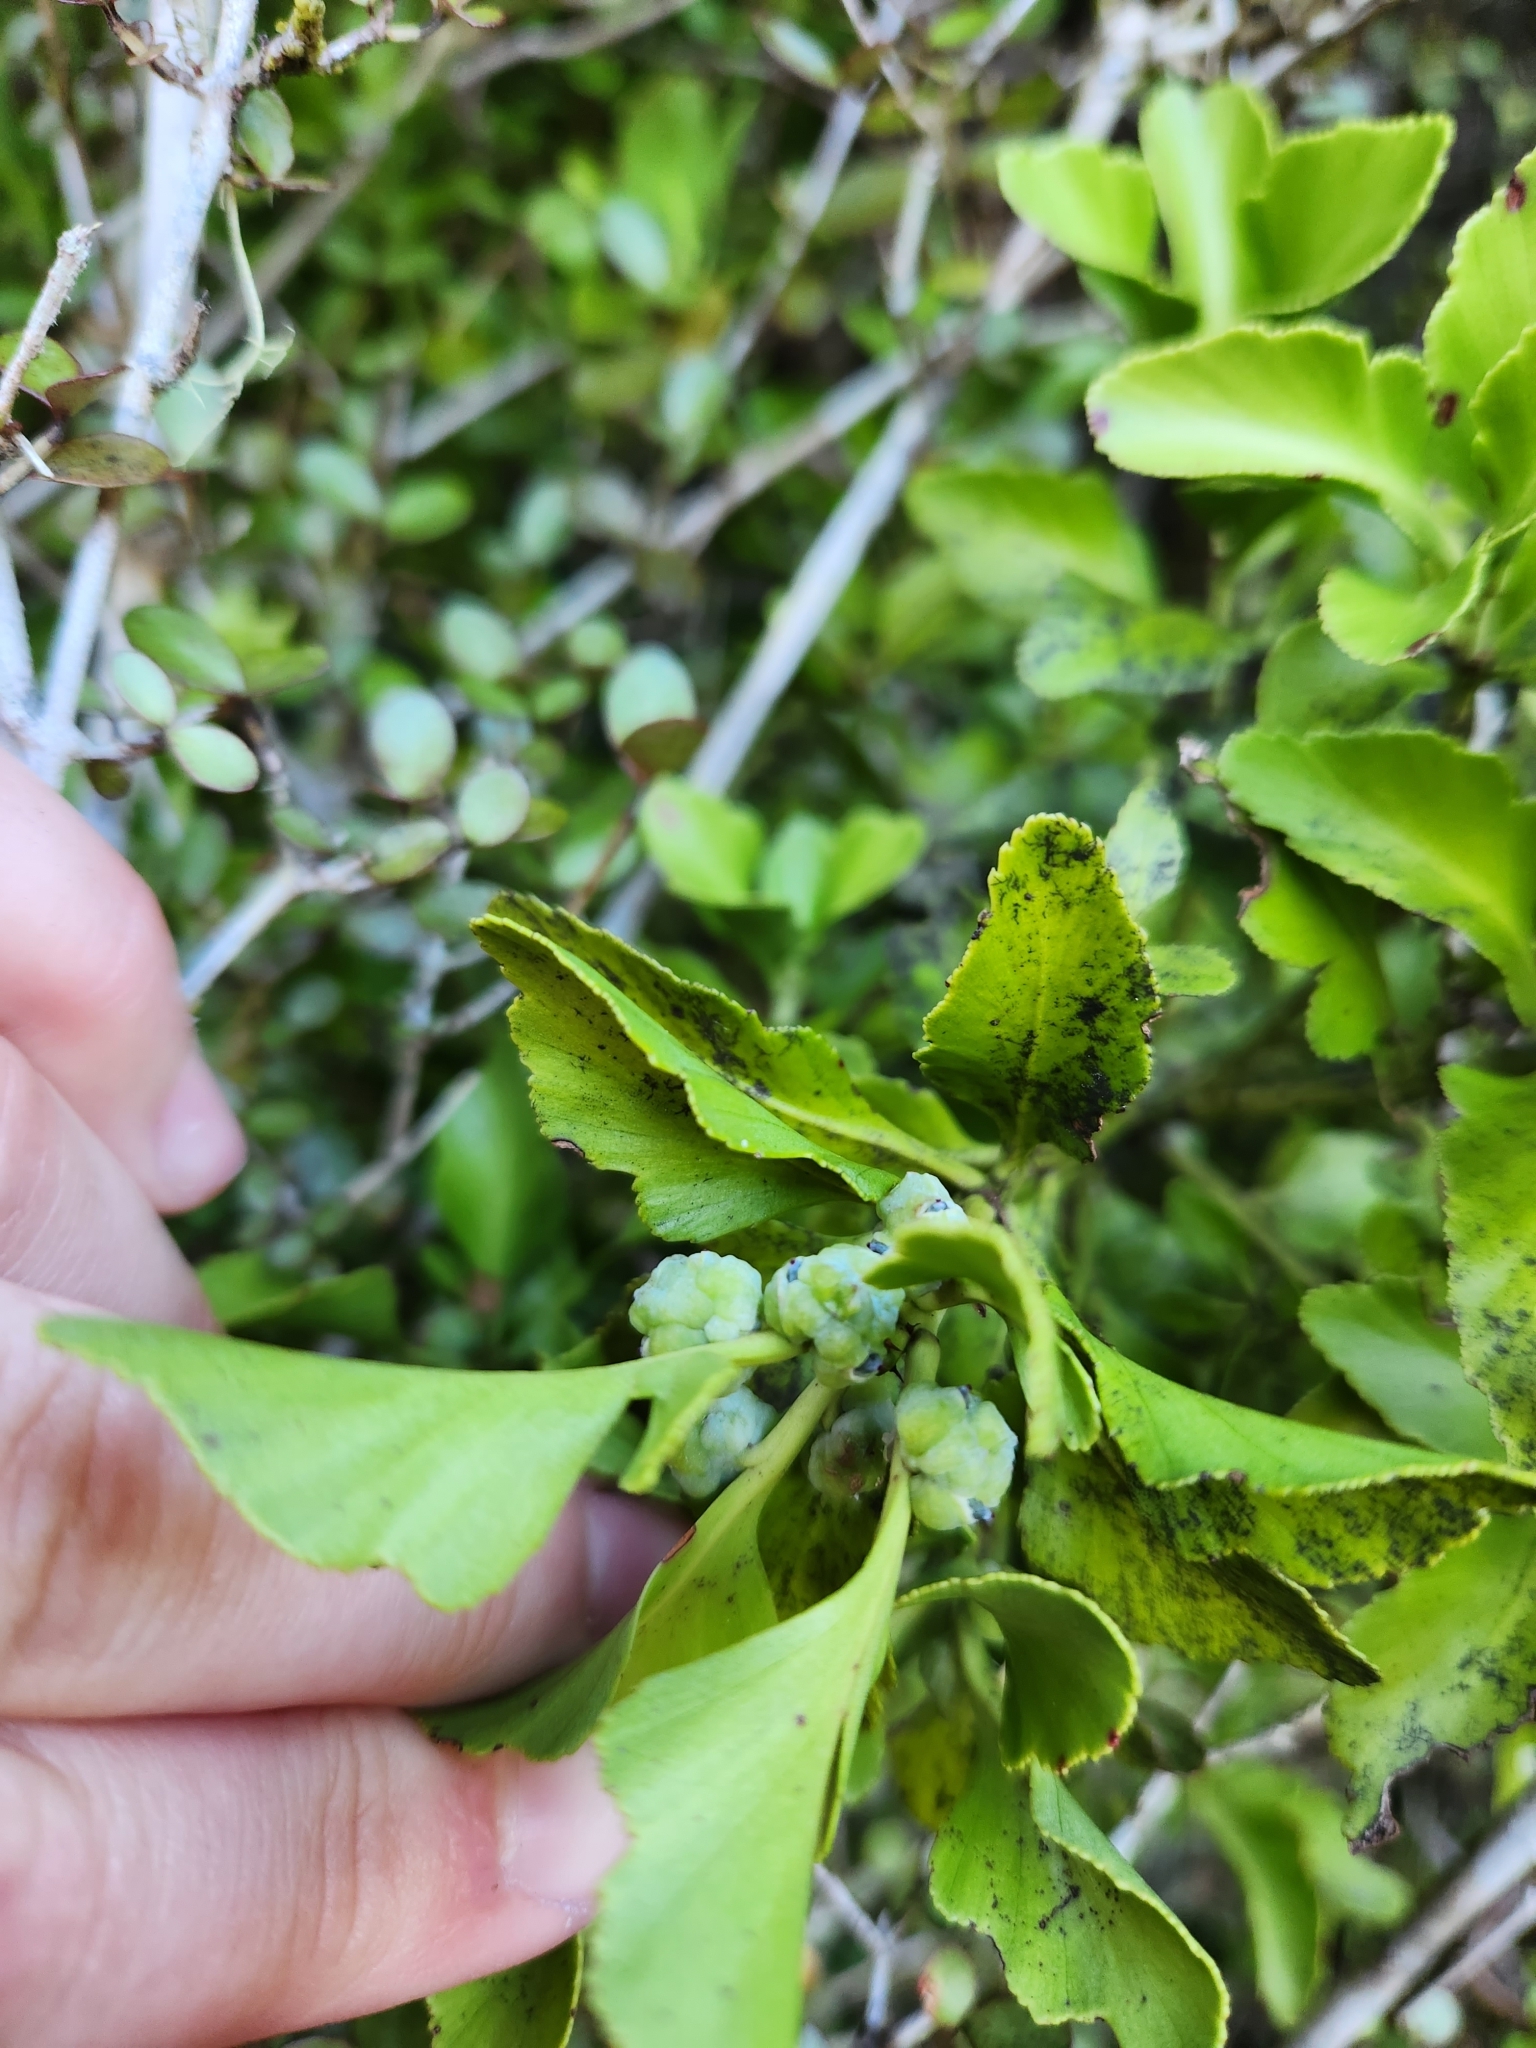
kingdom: Plantae
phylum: Tracheophyta
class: Pinopsida
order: Pinales
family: Phyllocladaceae
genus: Phyllocladus
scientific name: Phyllocladus trichomanoides
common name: Celery pine
